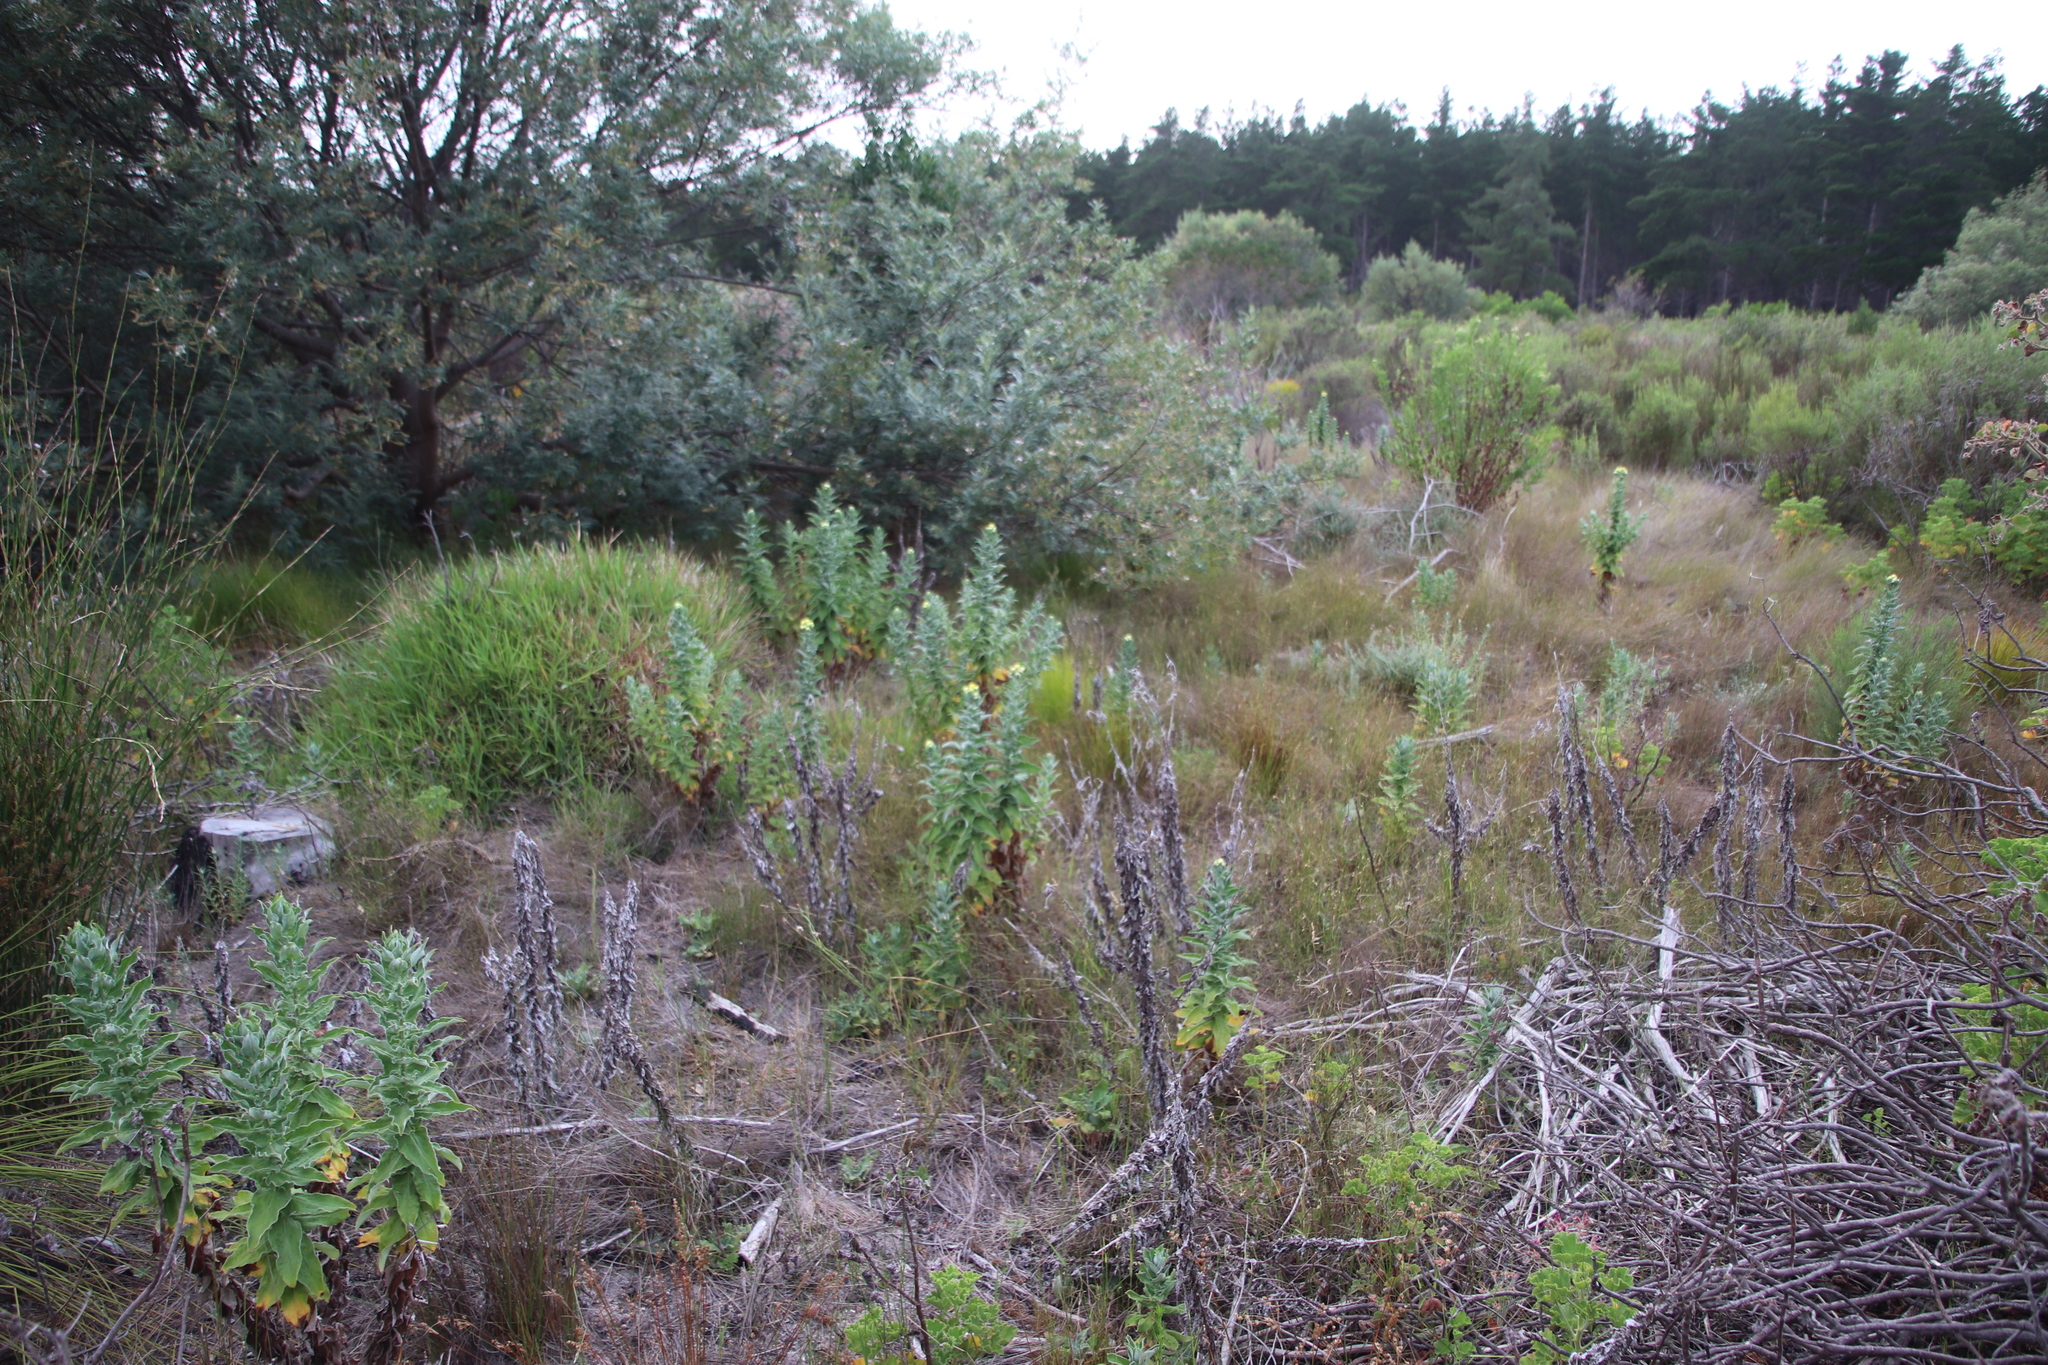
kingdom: Plantae
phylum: Tracheophyta
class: Magnoliopsida
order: Asterales
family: Asteraceae
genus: Helichrysum
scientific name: Helichrysum foetidum
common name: Stinking everlasting
